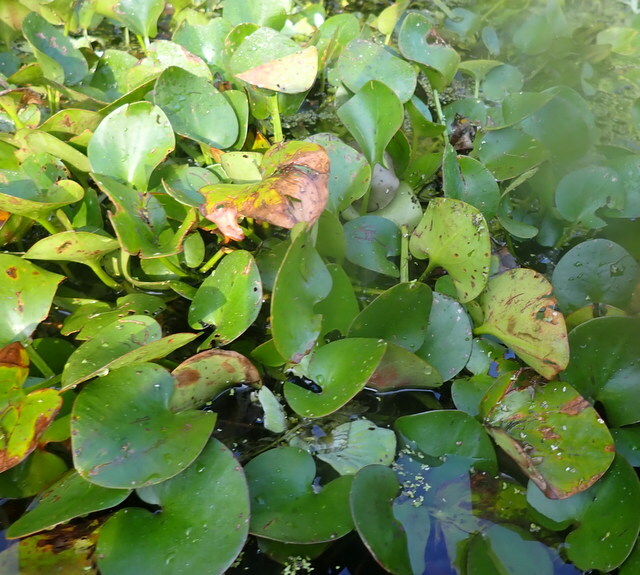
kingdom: Plantae
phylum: Tracheophyta
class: Liliopsida
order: Alismatales
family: Hydrocharitaceae
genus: Hydrocharis
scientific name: Hydrocharis spongia
